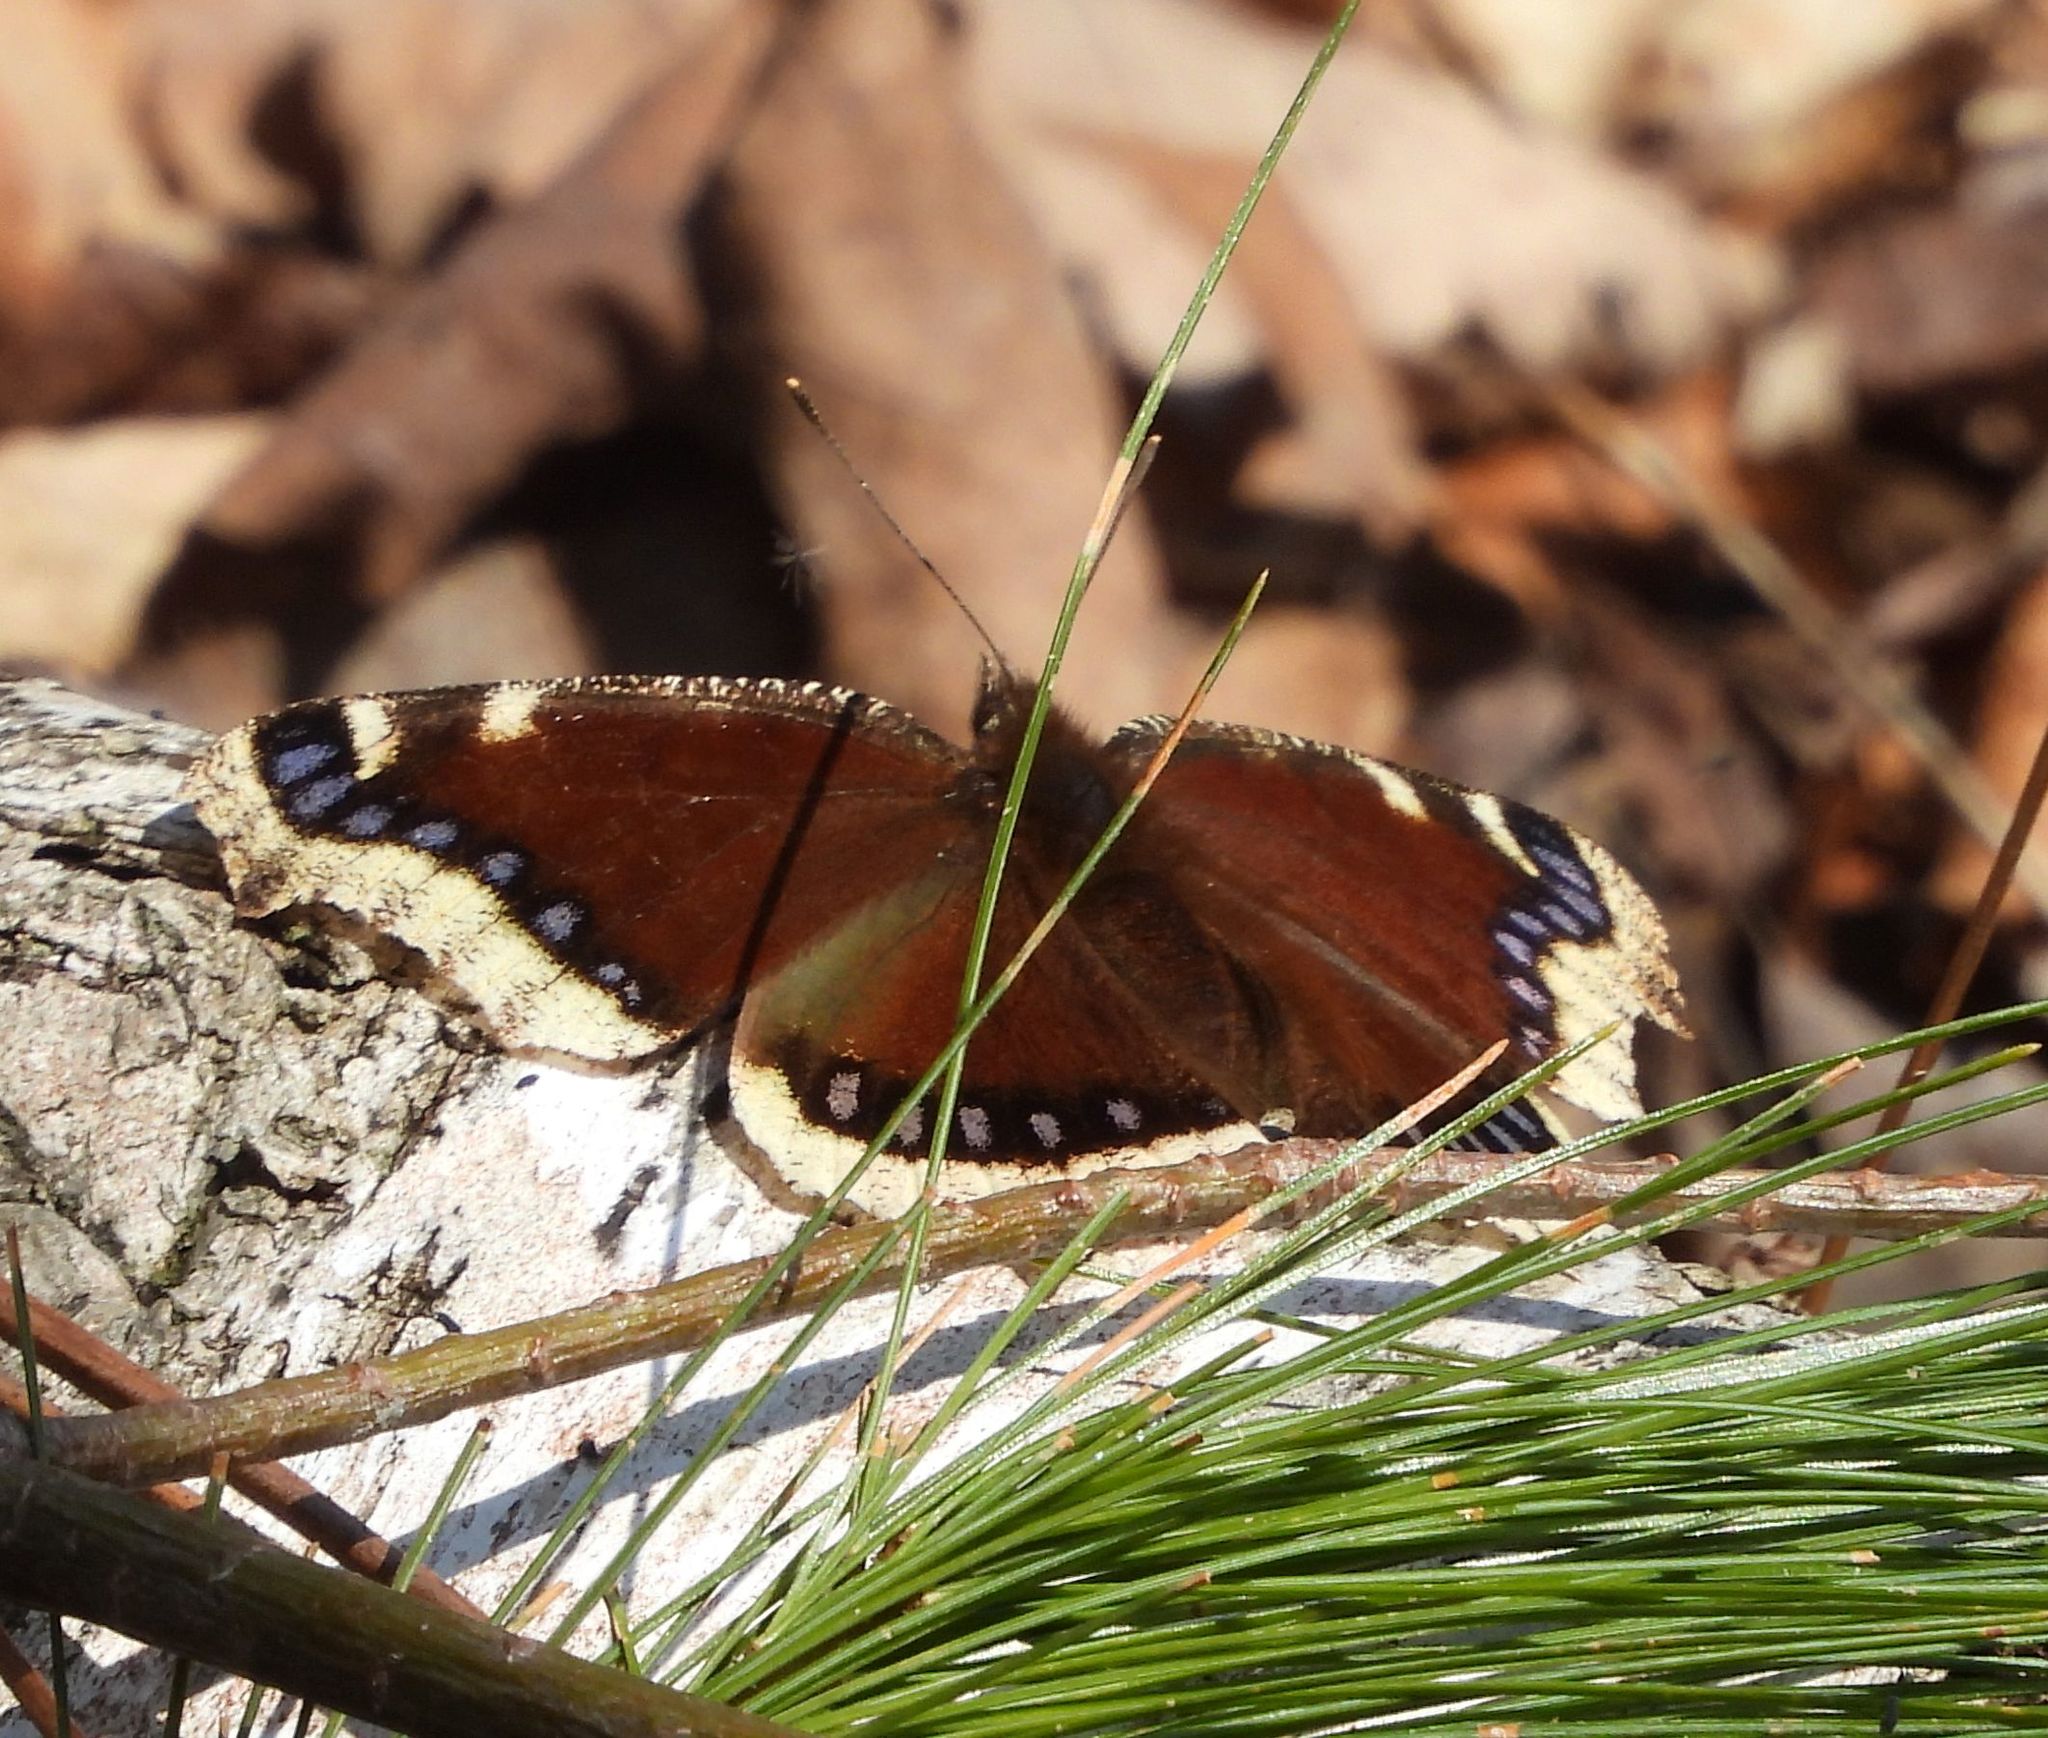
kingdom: Animalia
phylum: Arthropoda
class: Insecta
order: Lepidoptera
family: Nymphalidae
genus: Nymphalis
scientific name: Nymphalis antiopa
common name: Camberwell beauty
